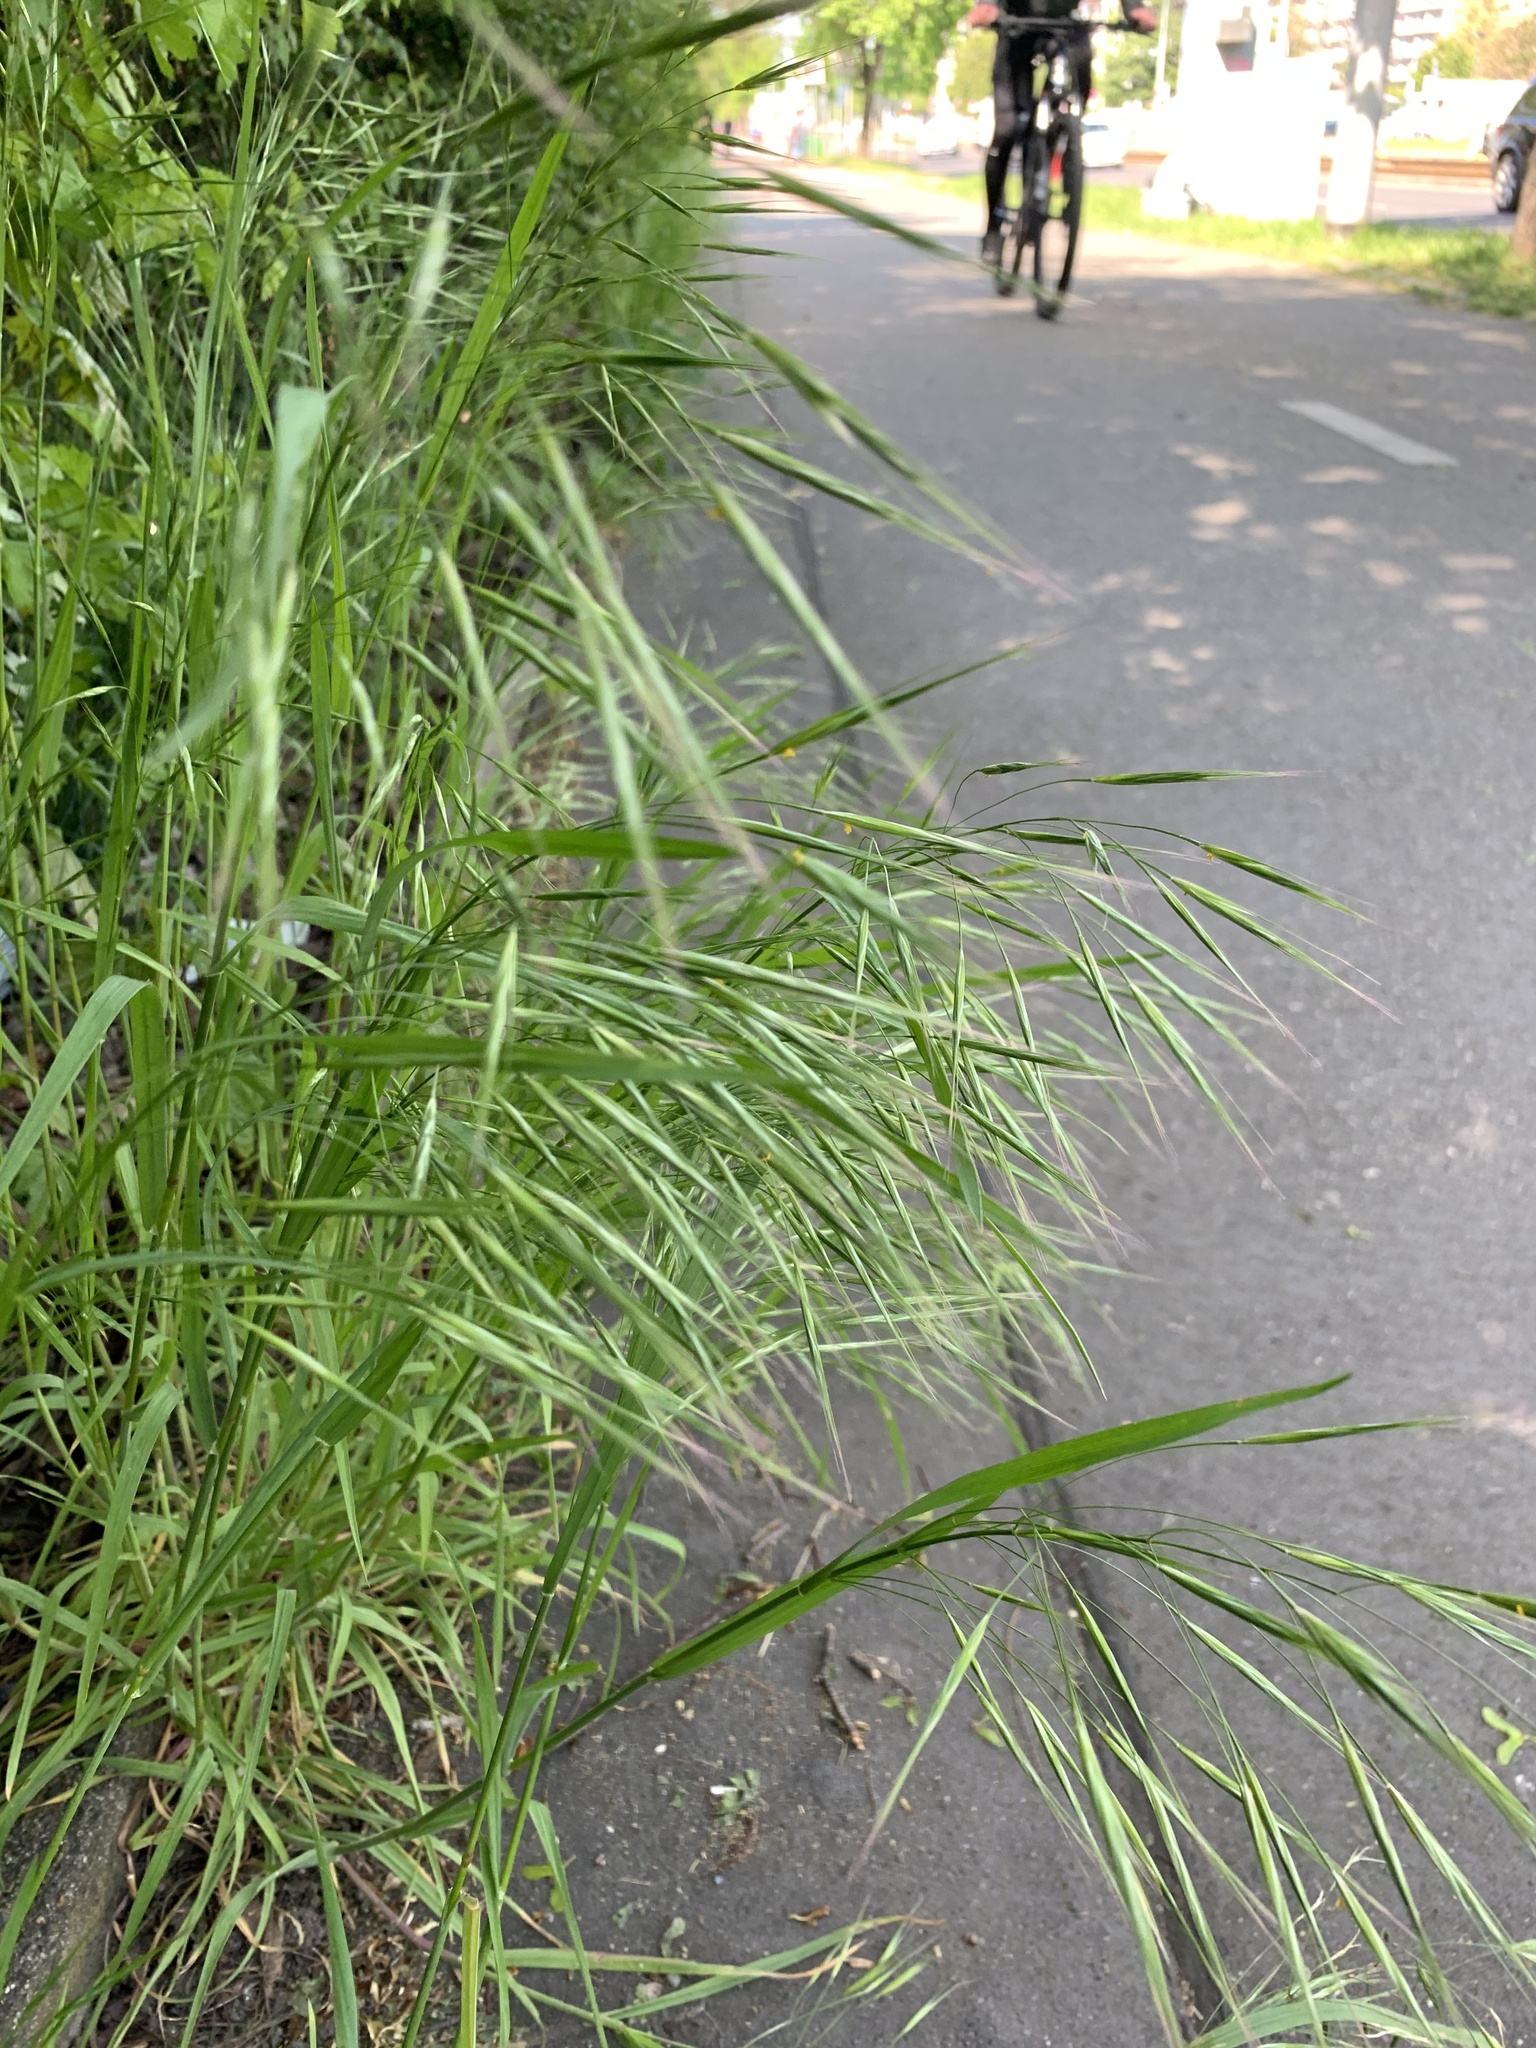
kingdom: Plantae
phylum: Tracheophyta
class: Liliopsida
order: Poales
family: Poaceae
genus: Bromus
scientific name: Bromus sterilis
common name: Poverty brome
